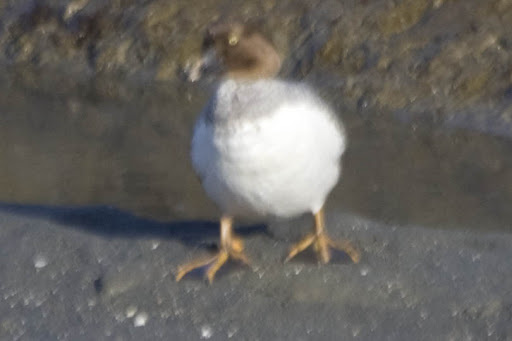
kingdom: Animalia
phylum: Chordata
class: Aves
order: Anseriformes
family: Anatidae
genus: Bucephala
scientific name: Bucephala clangula
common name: Common goldeneye
